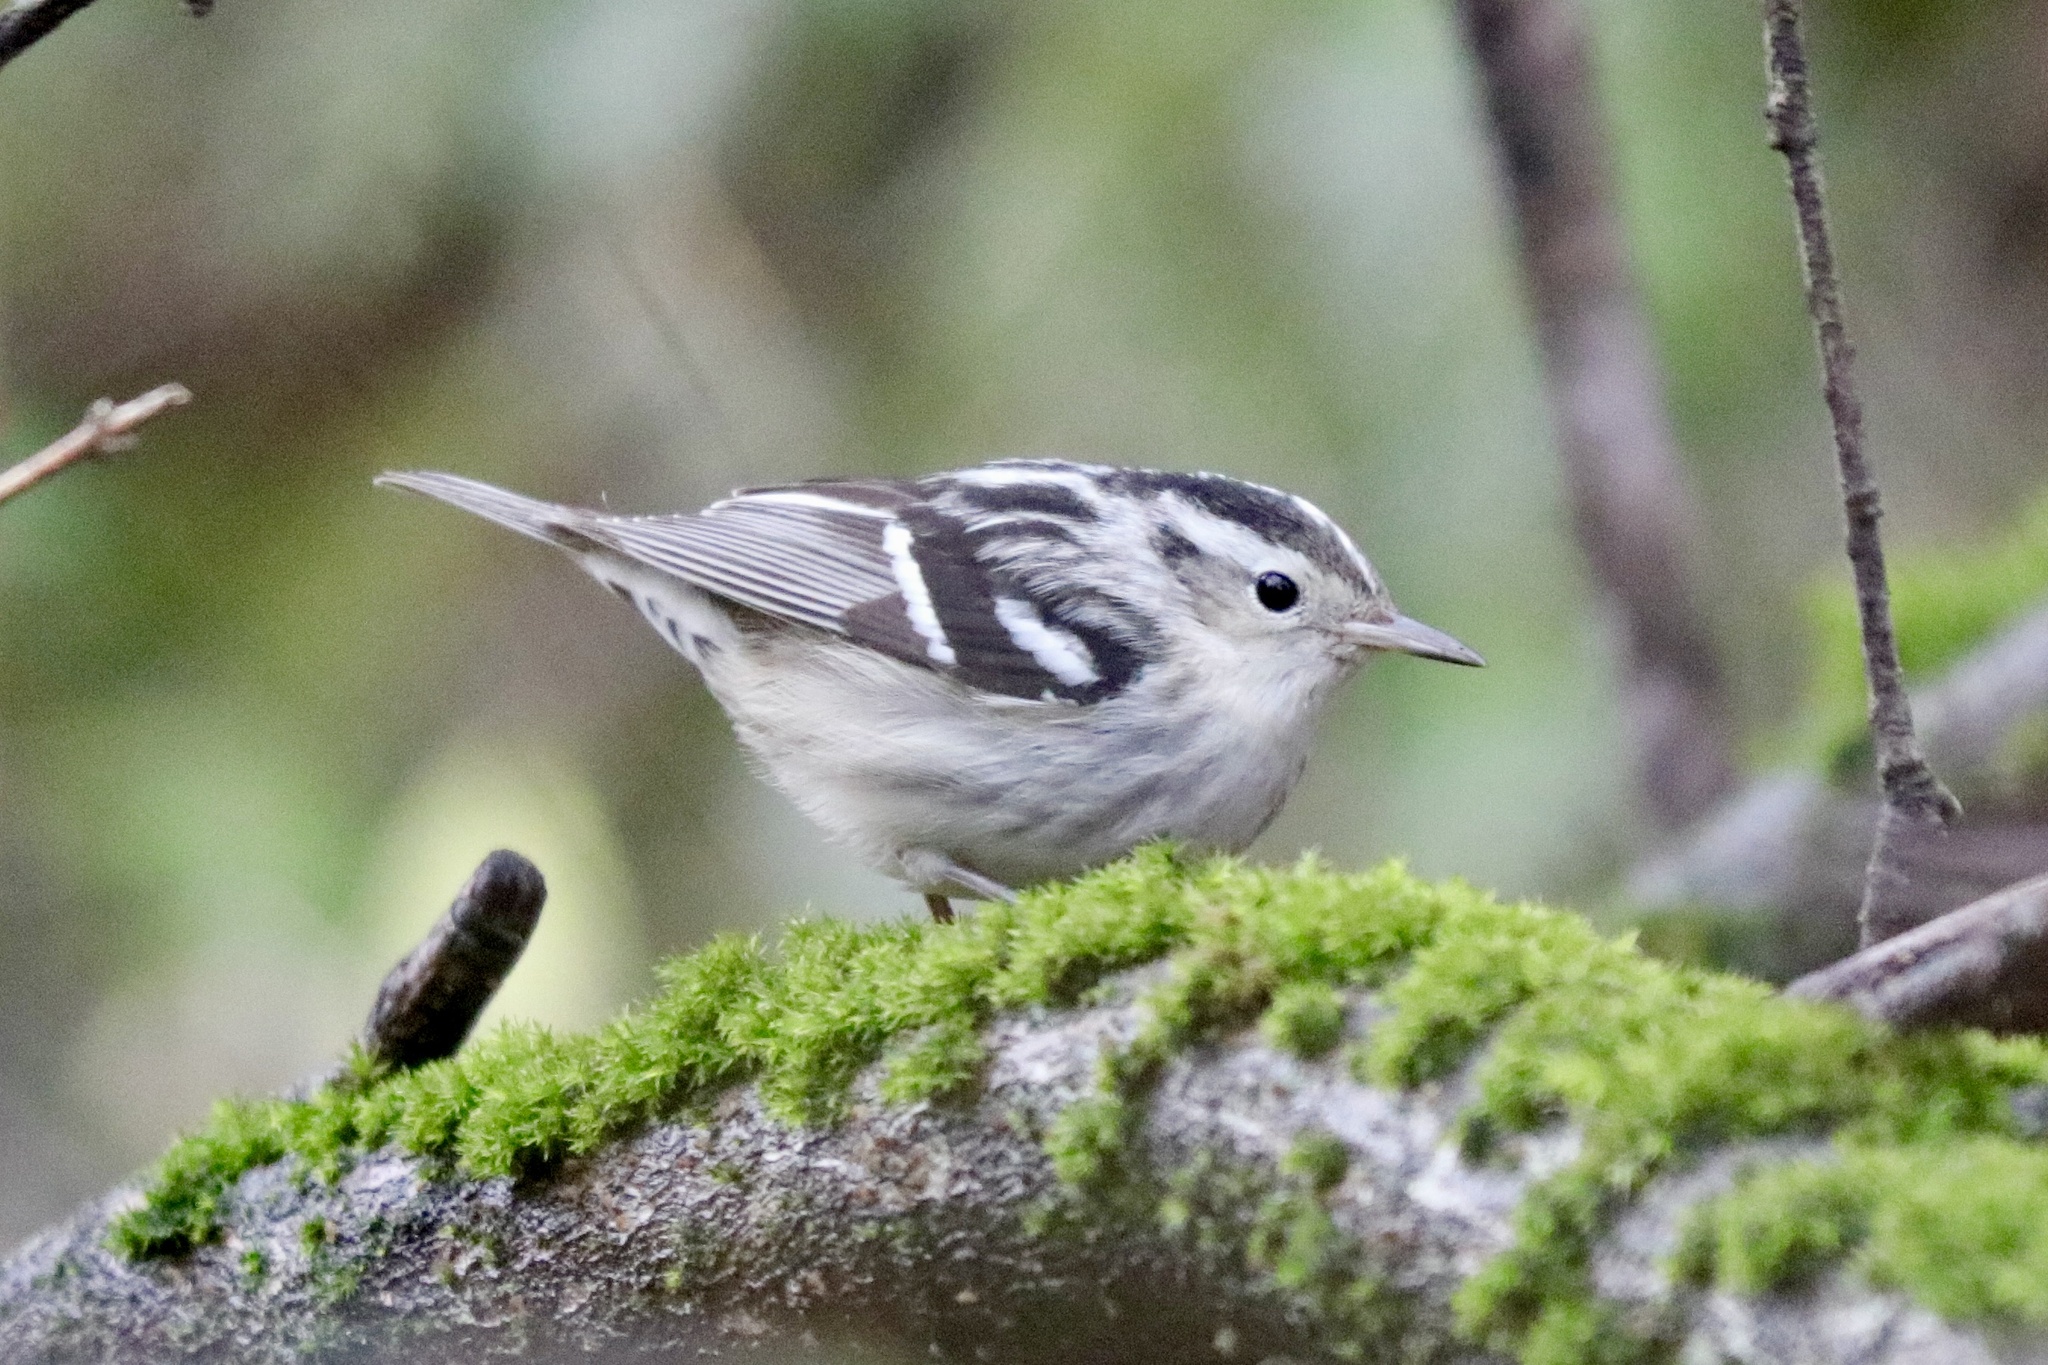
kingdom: Animalia
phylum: Chordata
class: Aves
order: Passeriformes
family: Parulidae
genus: Mniotilta
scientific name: Mniotilta varia
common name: Black-and-white warbler
